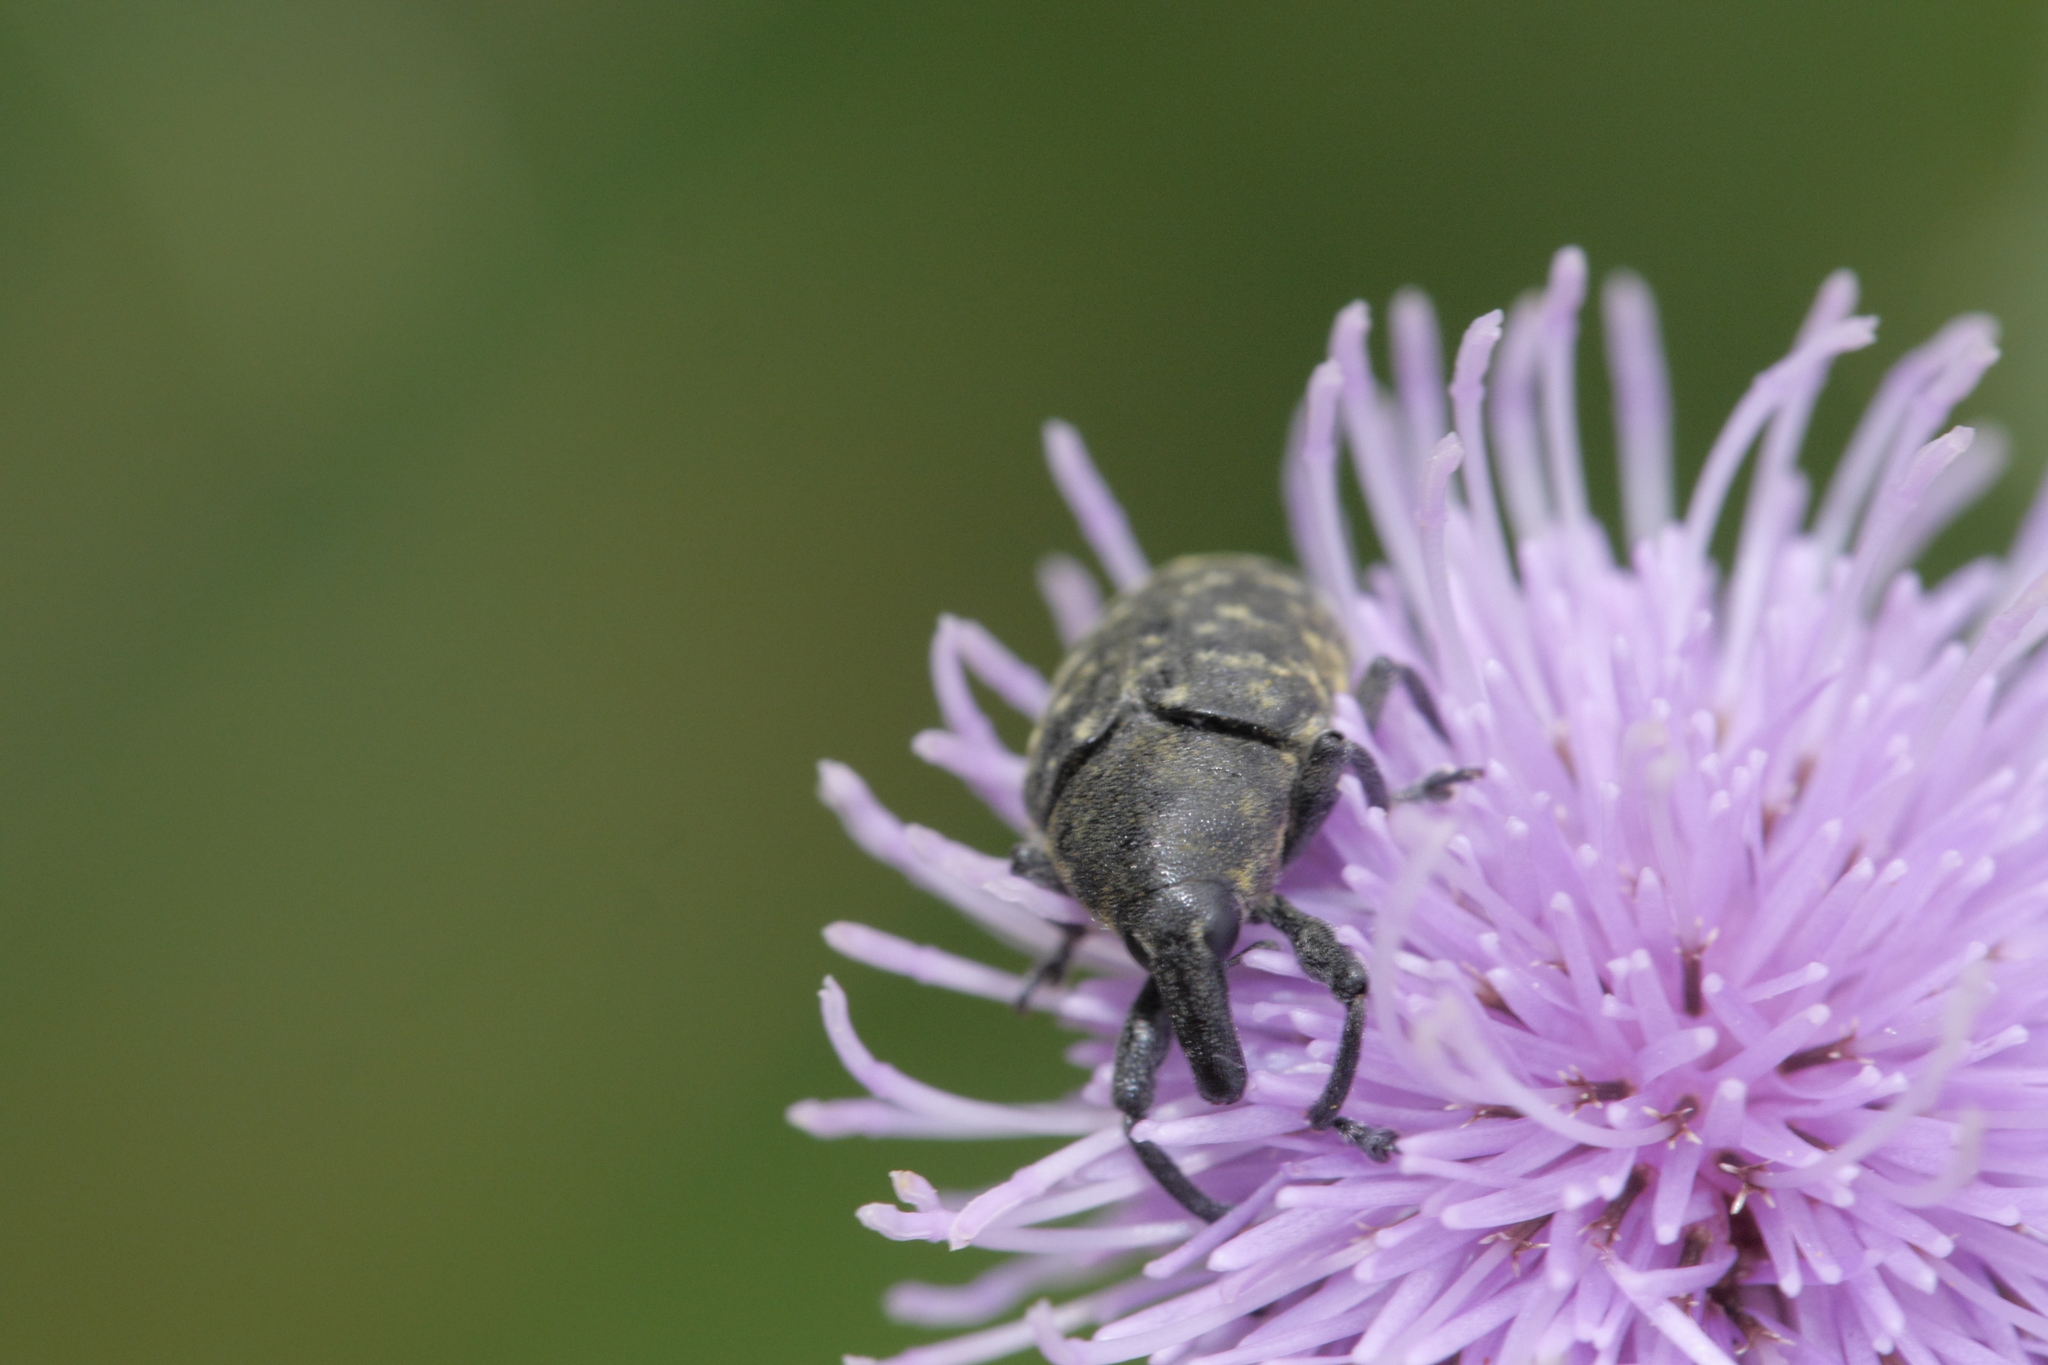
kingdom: Animalia
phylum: Arthropoda
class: Insecta
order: Coleoptera
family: Curculionidae
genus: Larinus
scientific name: Larinus turbinatus
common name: Weevil
